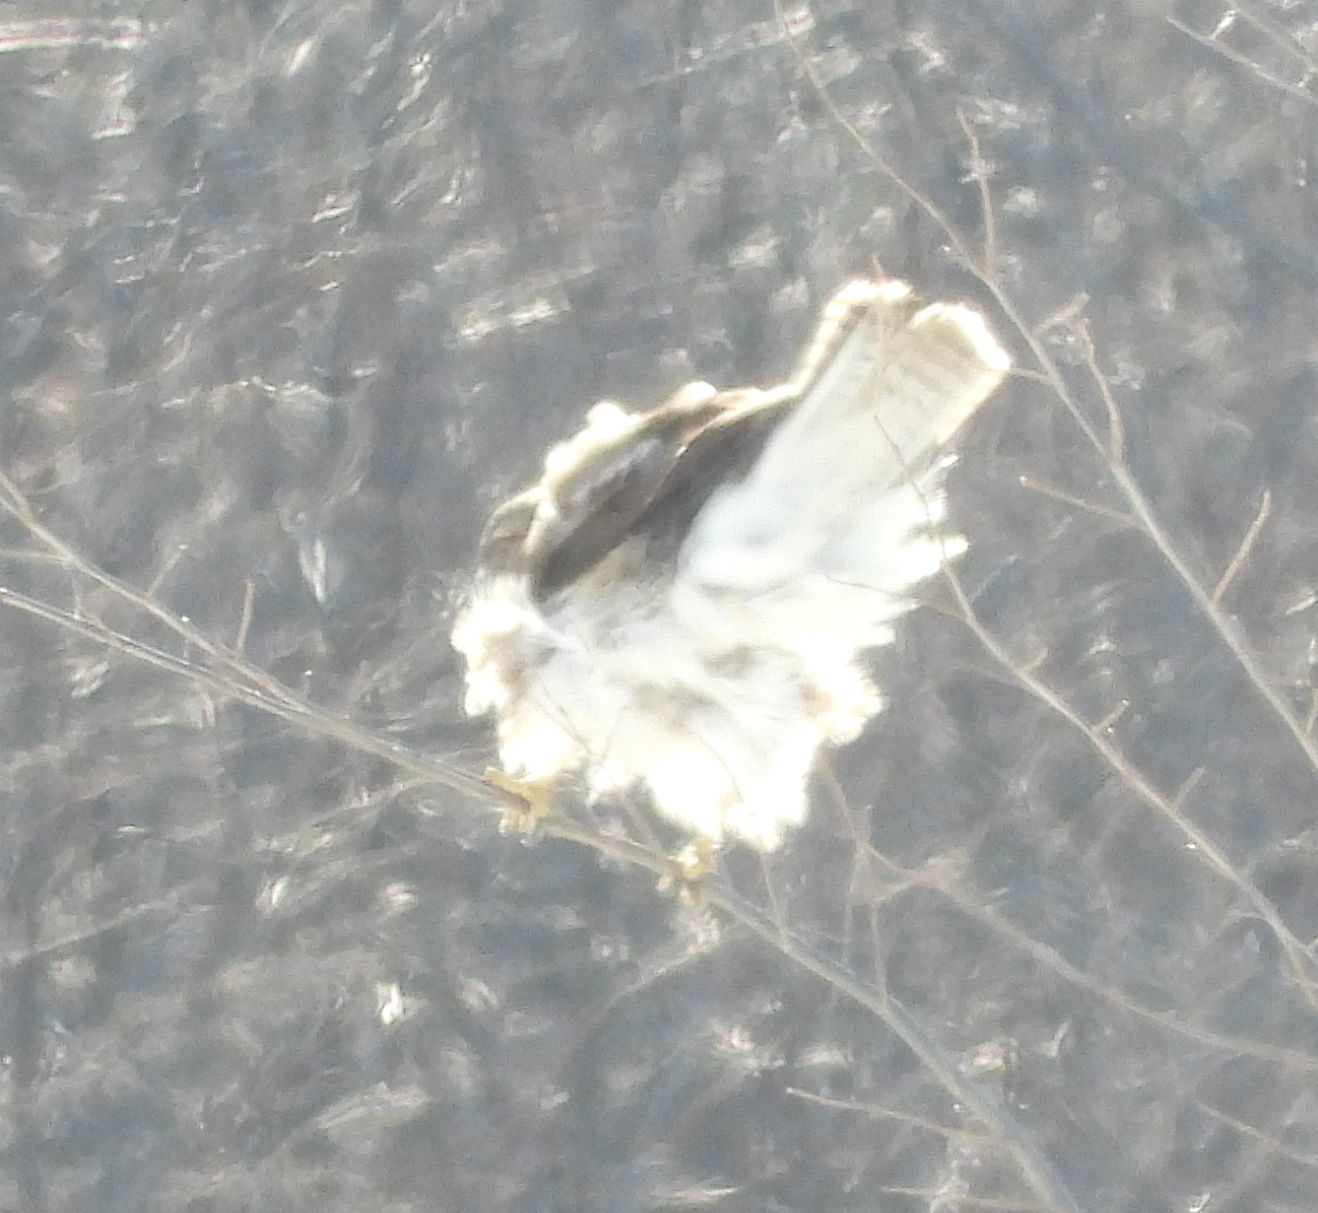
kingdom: Animalia
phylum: Chordata
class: Aves
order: Accipitriformes
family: Accipitridae
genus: Buteo
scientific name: Buteo jamaicensis
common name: Red-tailed hawk
